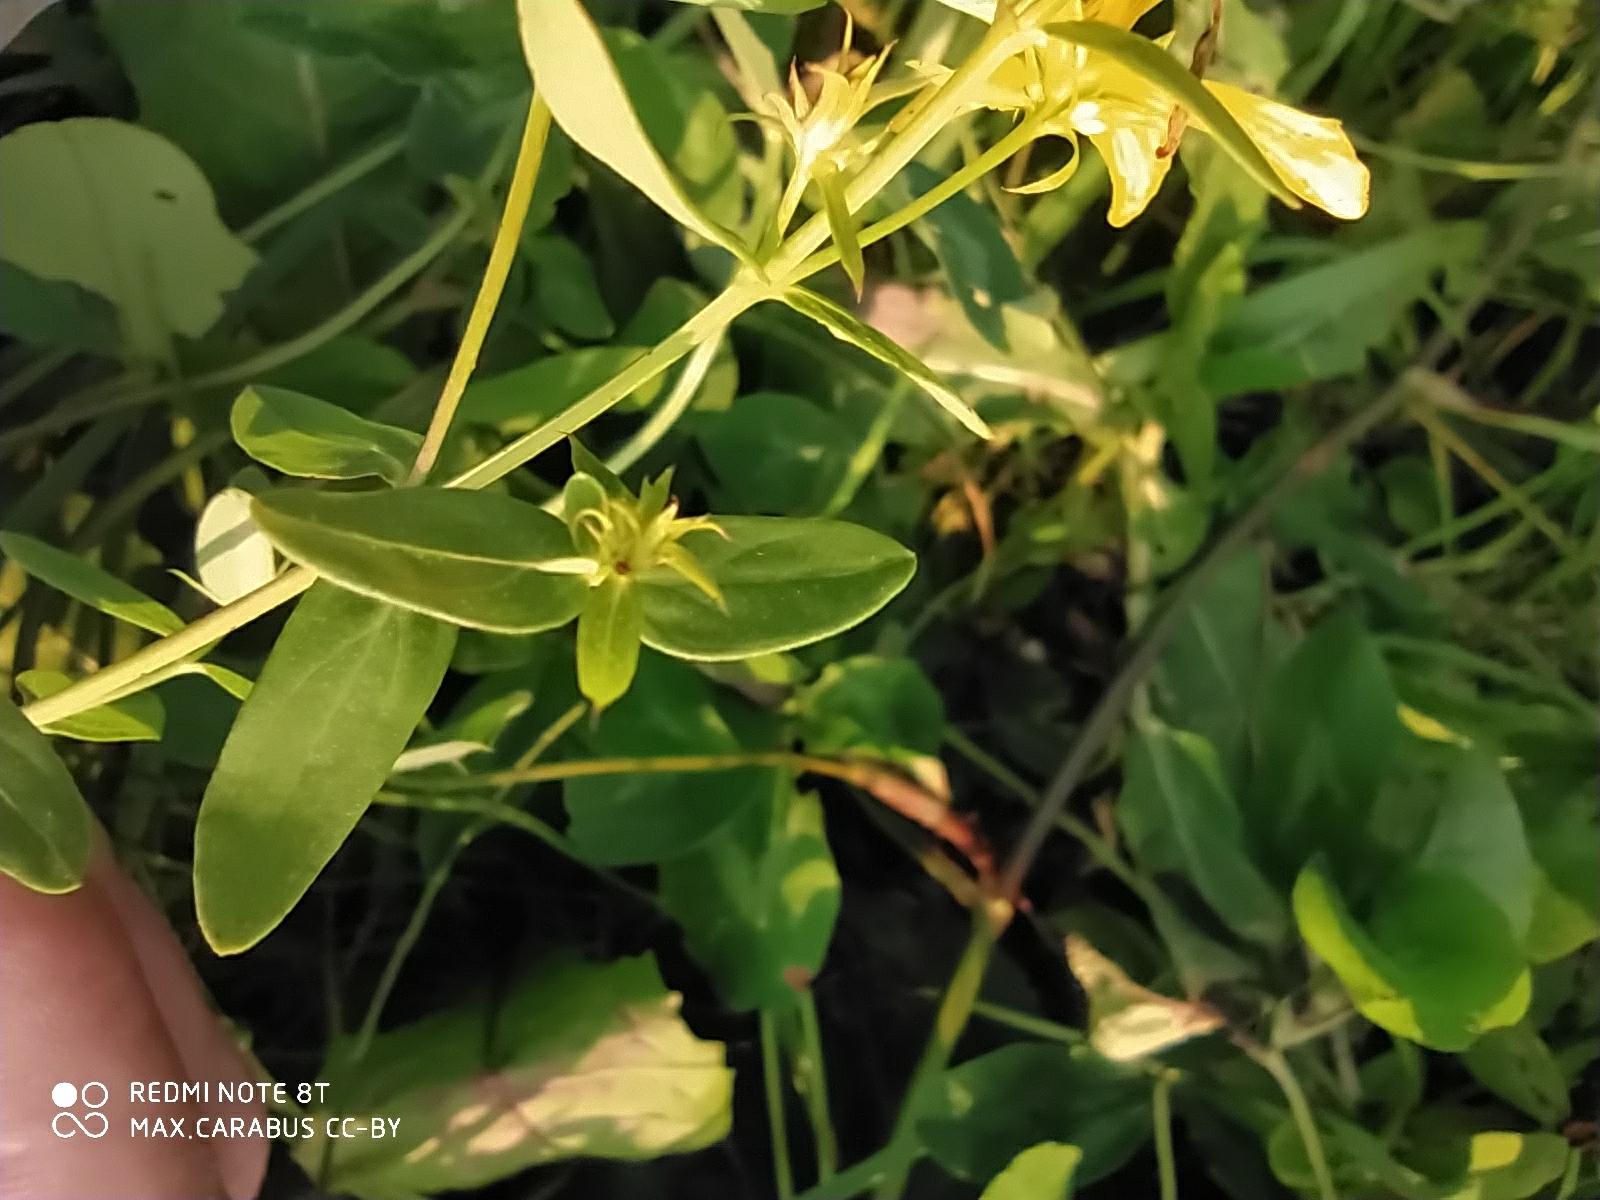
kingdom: Plantae
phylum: Tracheophyta
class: Magnoliopsida
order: Malpighiales
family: Hypericaceae
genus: Hypericum
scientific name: Hypericum perforatum
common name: Common st. johnswort
